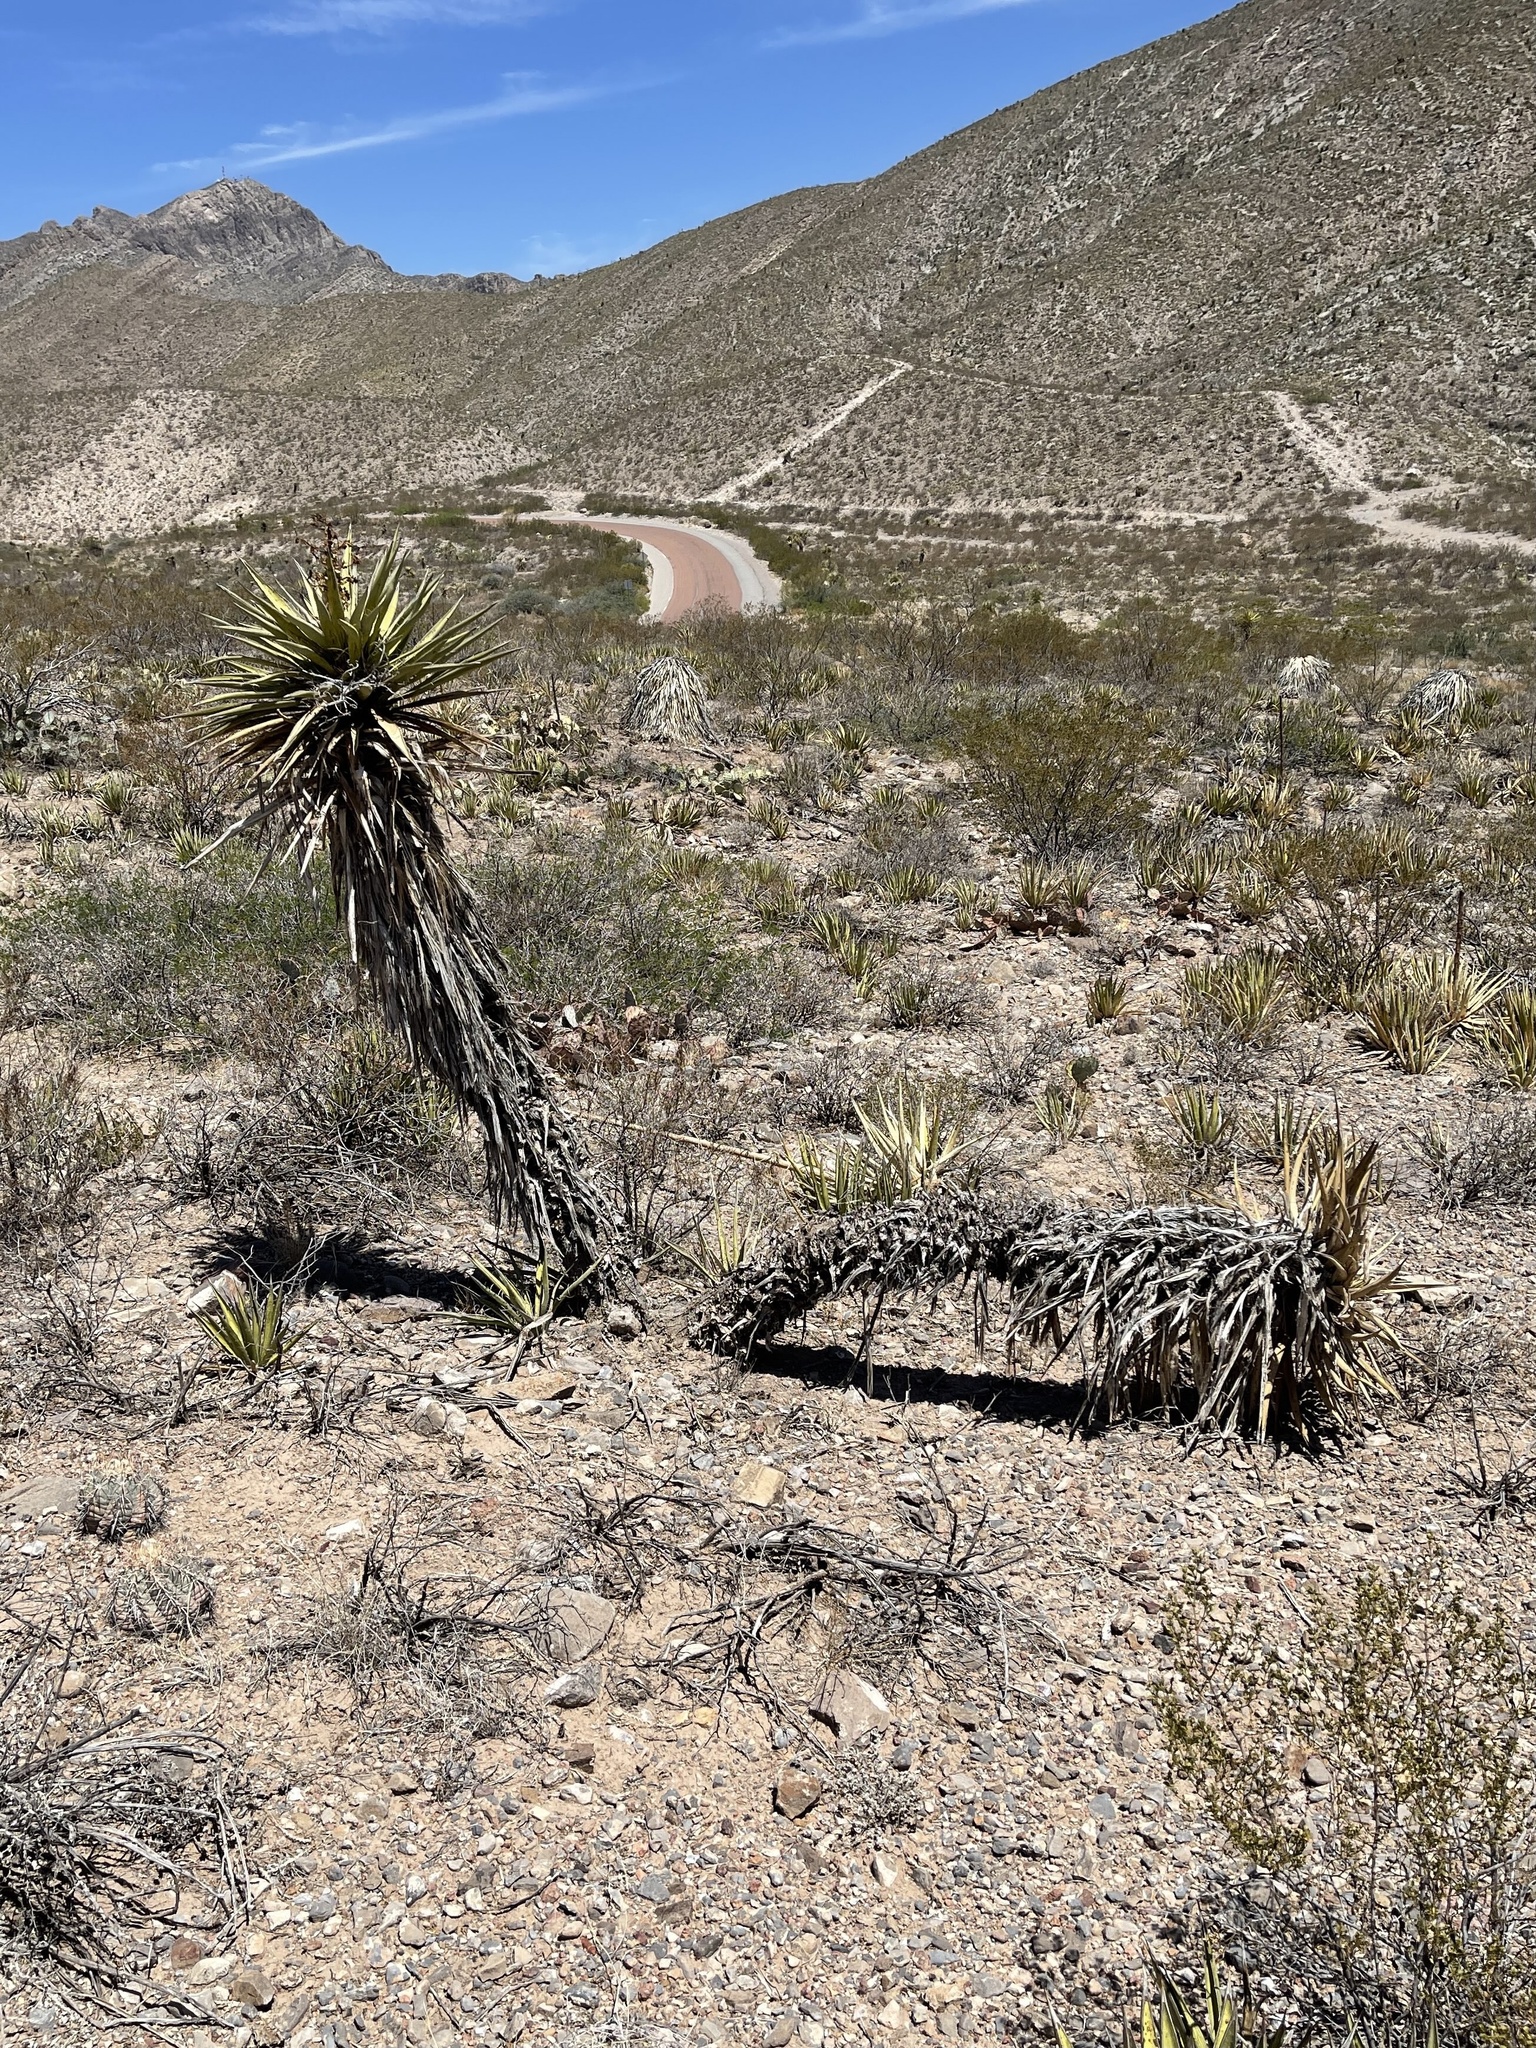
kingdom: Plantae
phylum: Tracheophyta
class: Liliopsida
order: Asparagales
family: Asparagaceae
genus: Yucca
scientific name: Yucca treculiana
